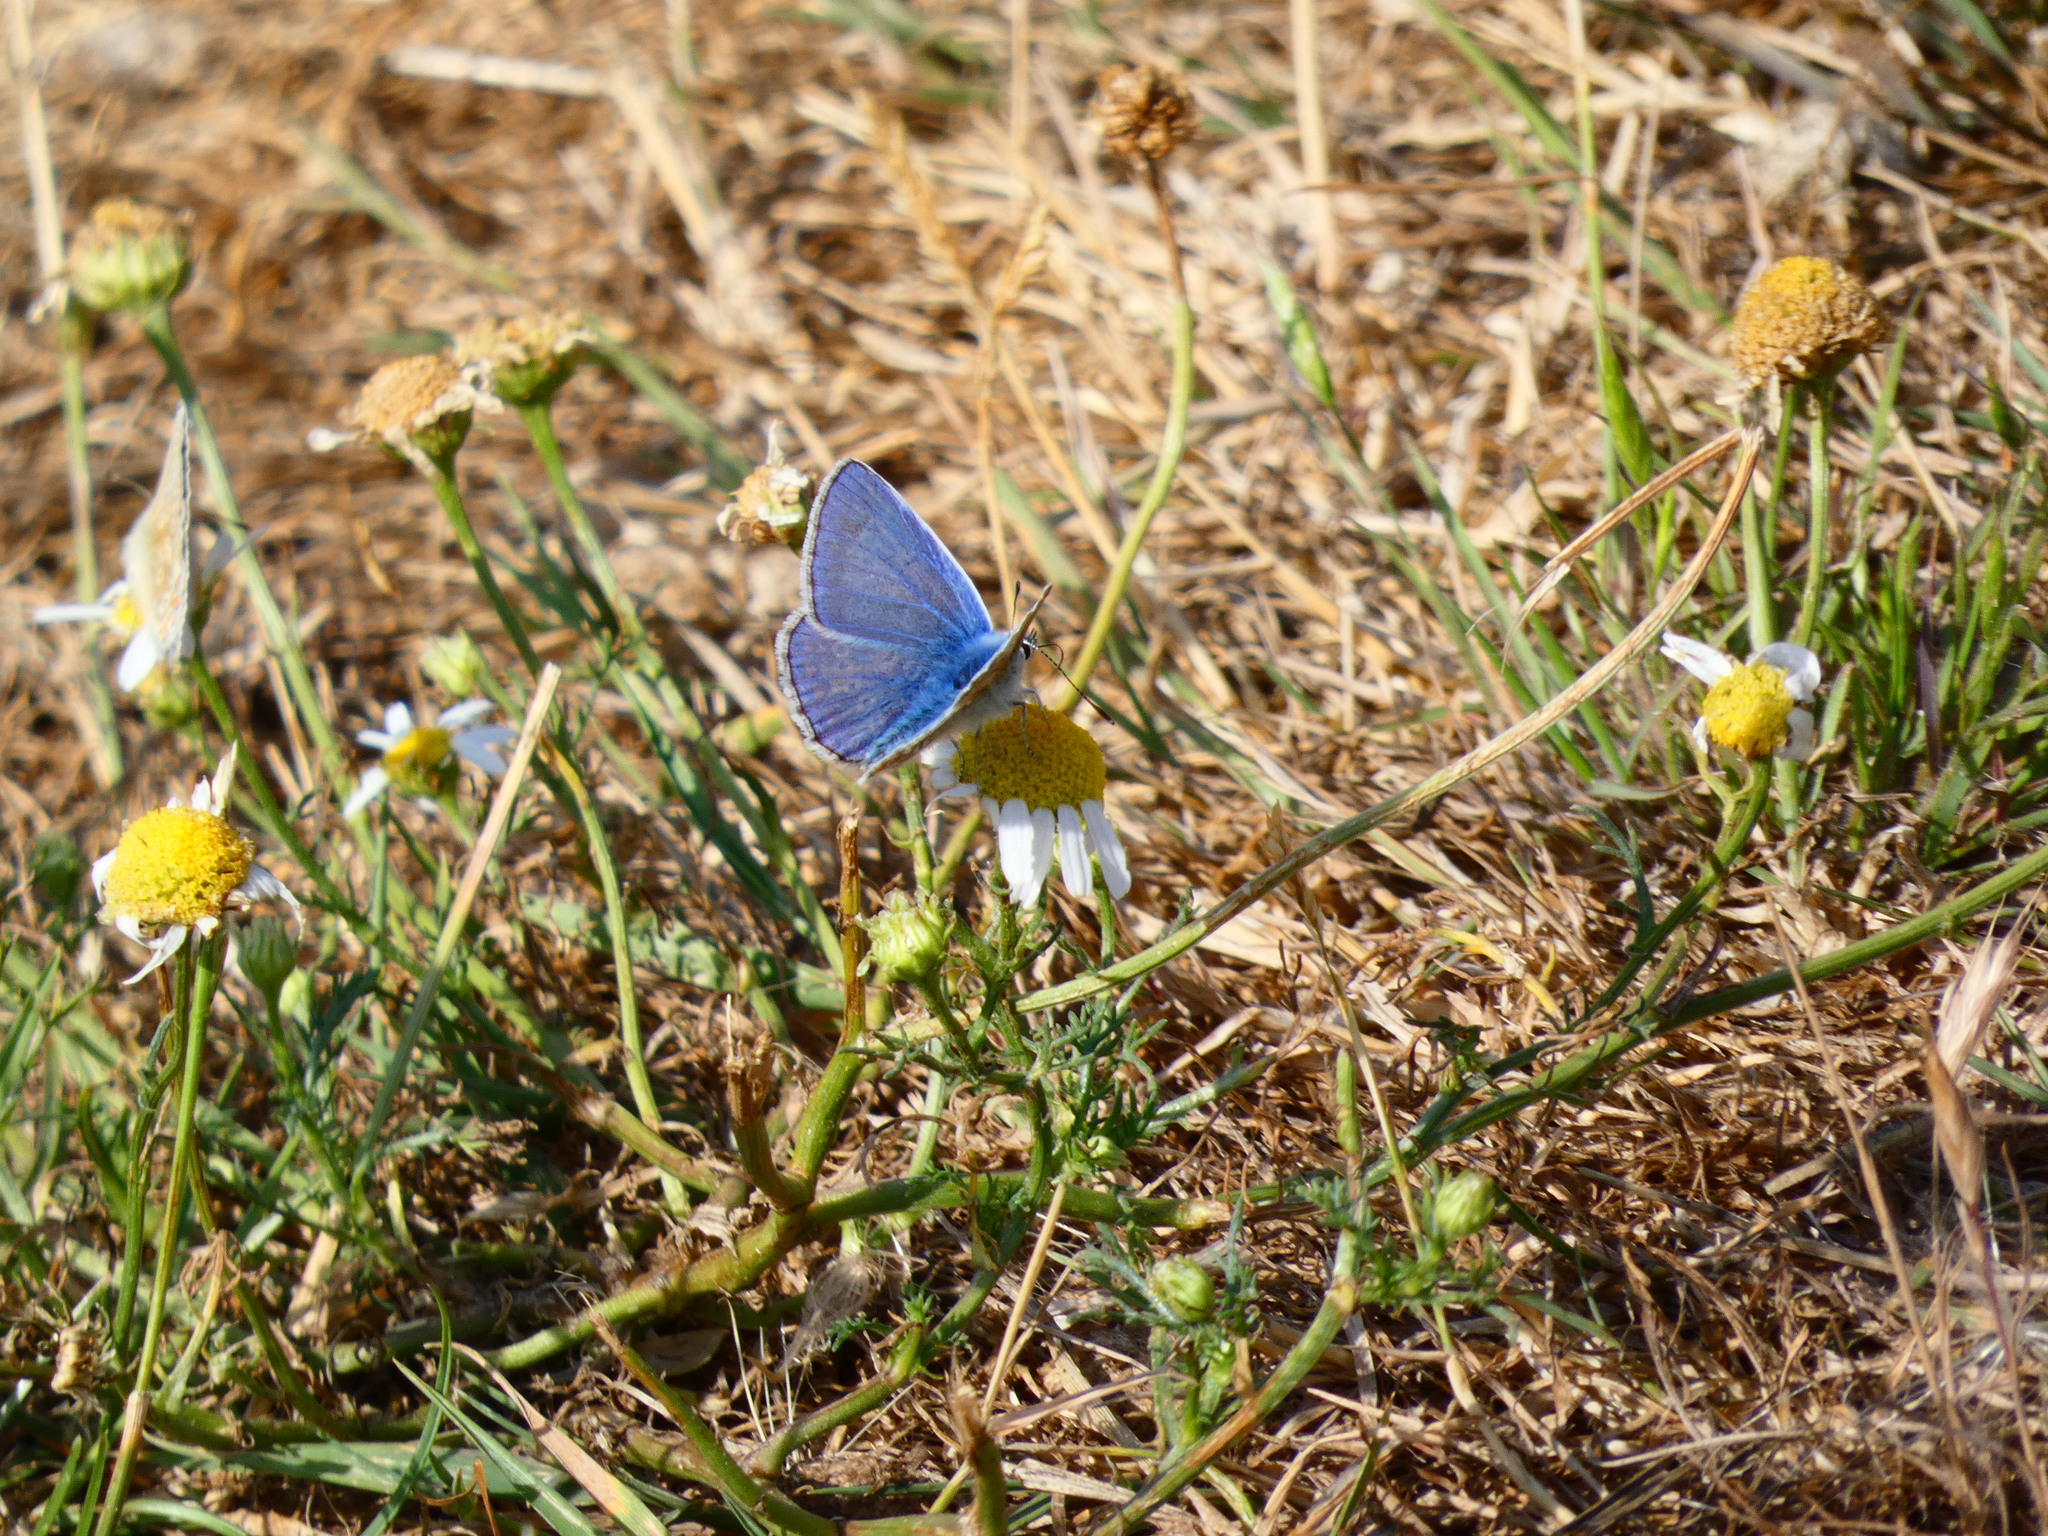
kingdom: Animalia
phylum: Arthropoda
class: Insecta
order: Lepidoptera
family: Lycaenidae
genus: Polyommatus
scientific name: Polyommatus icarus
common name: Common blue
